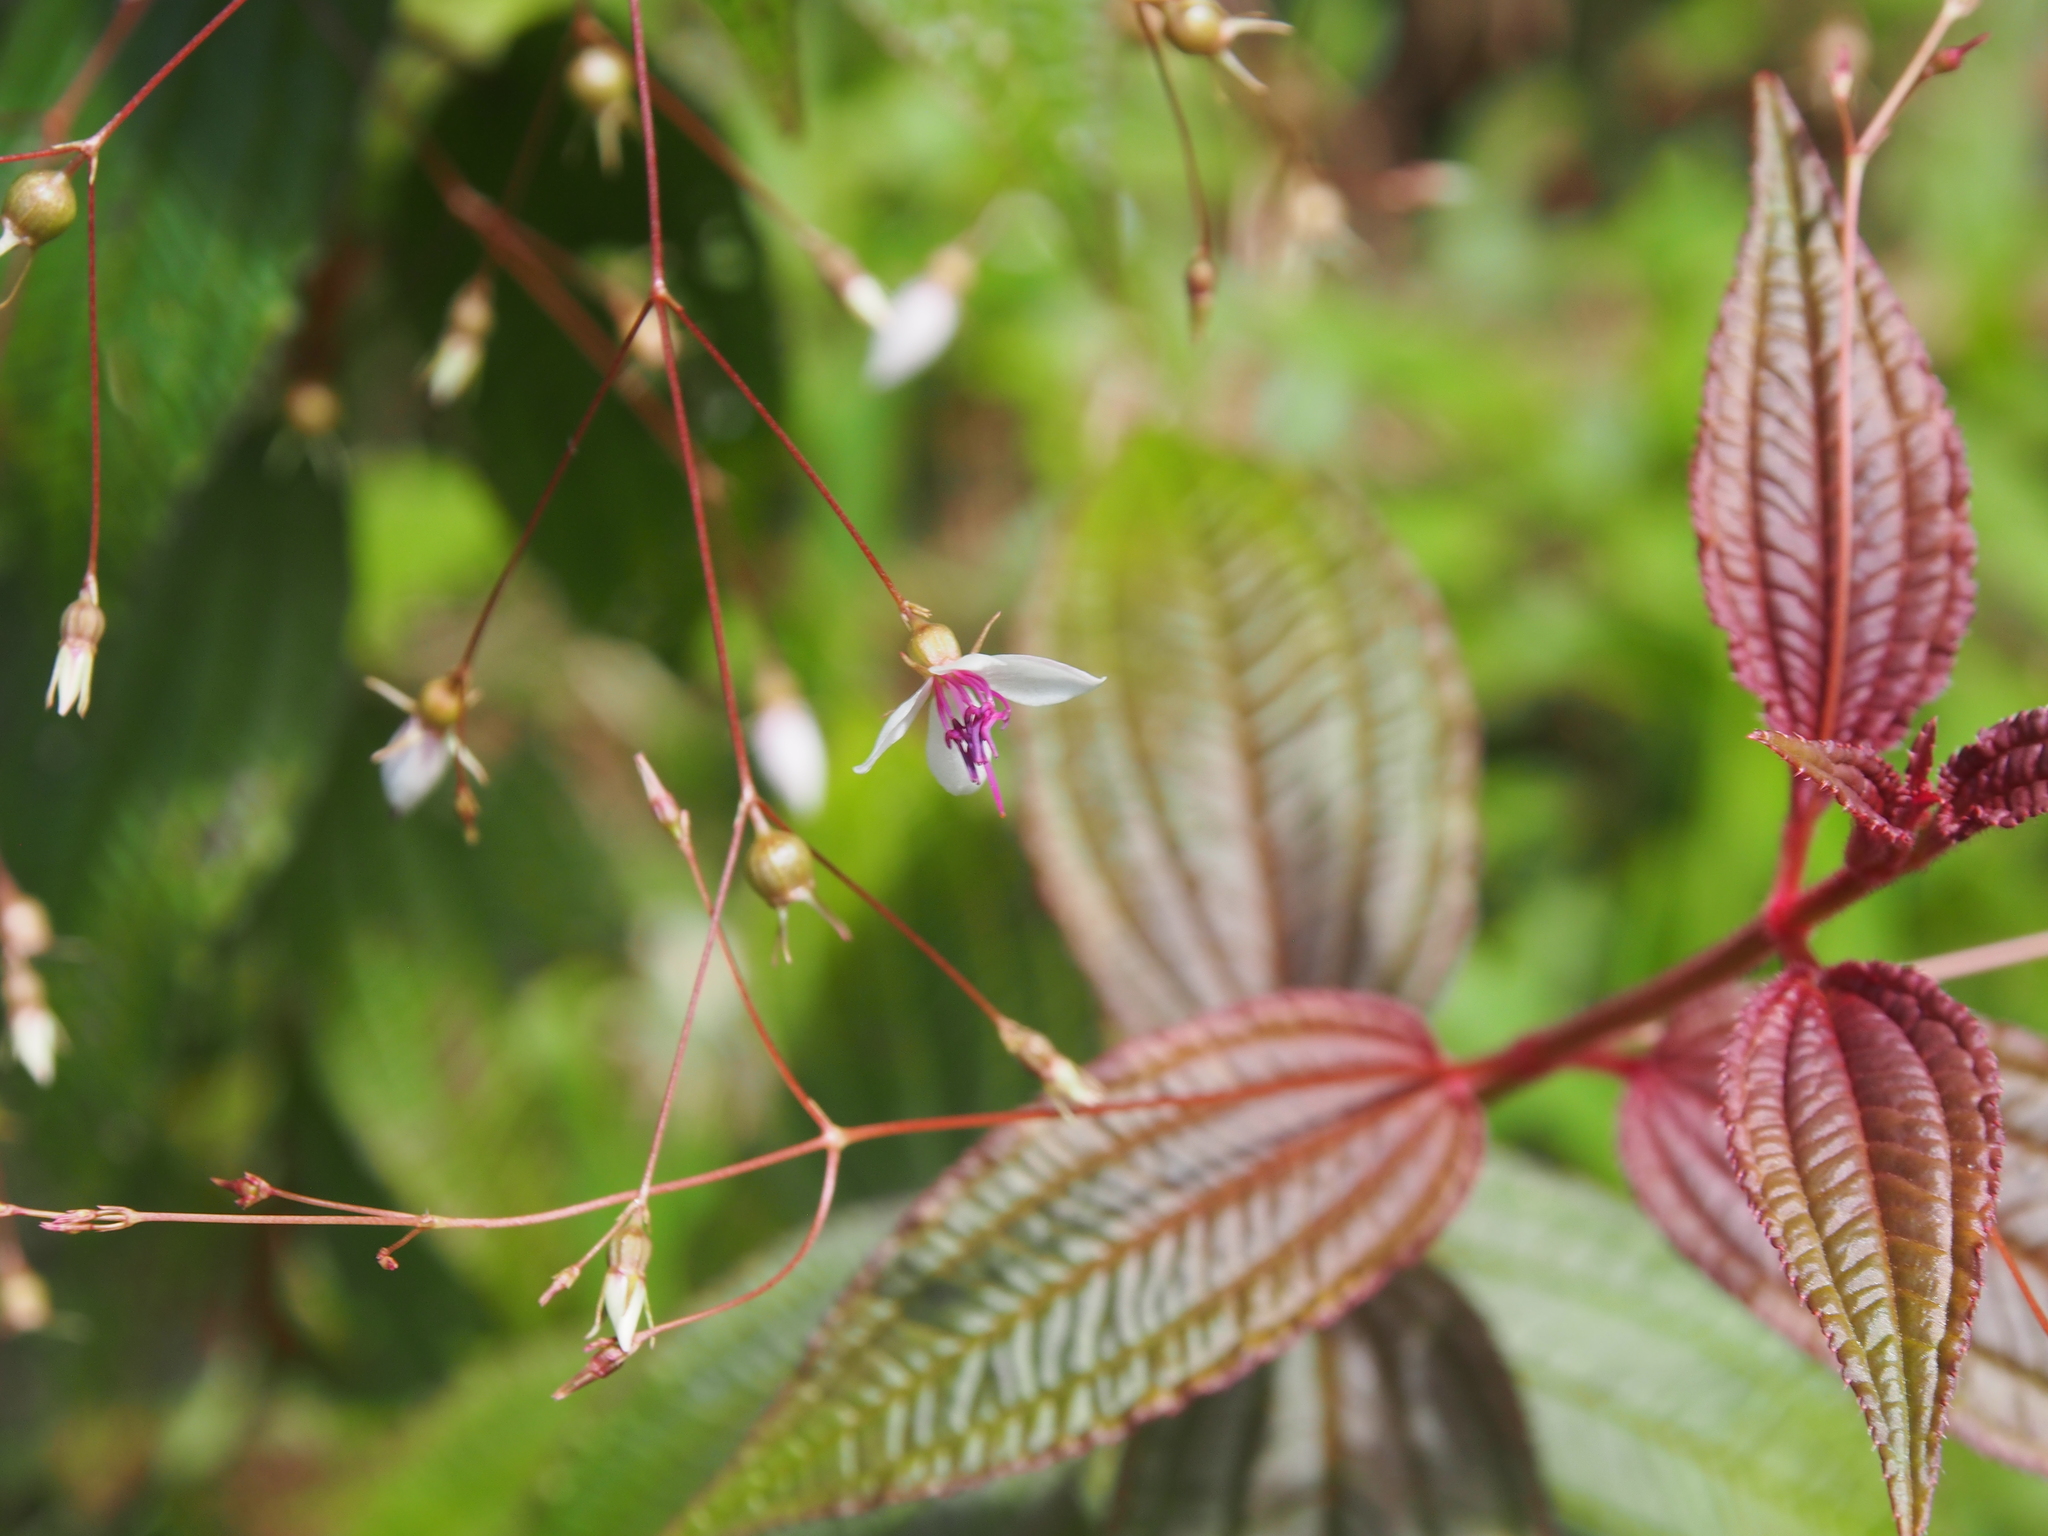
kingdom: Plantae
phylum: Tracheophyta
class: Magnoliopsida
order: Myrtales
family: Melastomataceae
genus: Nepsera
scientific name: Nepsera aquatica
